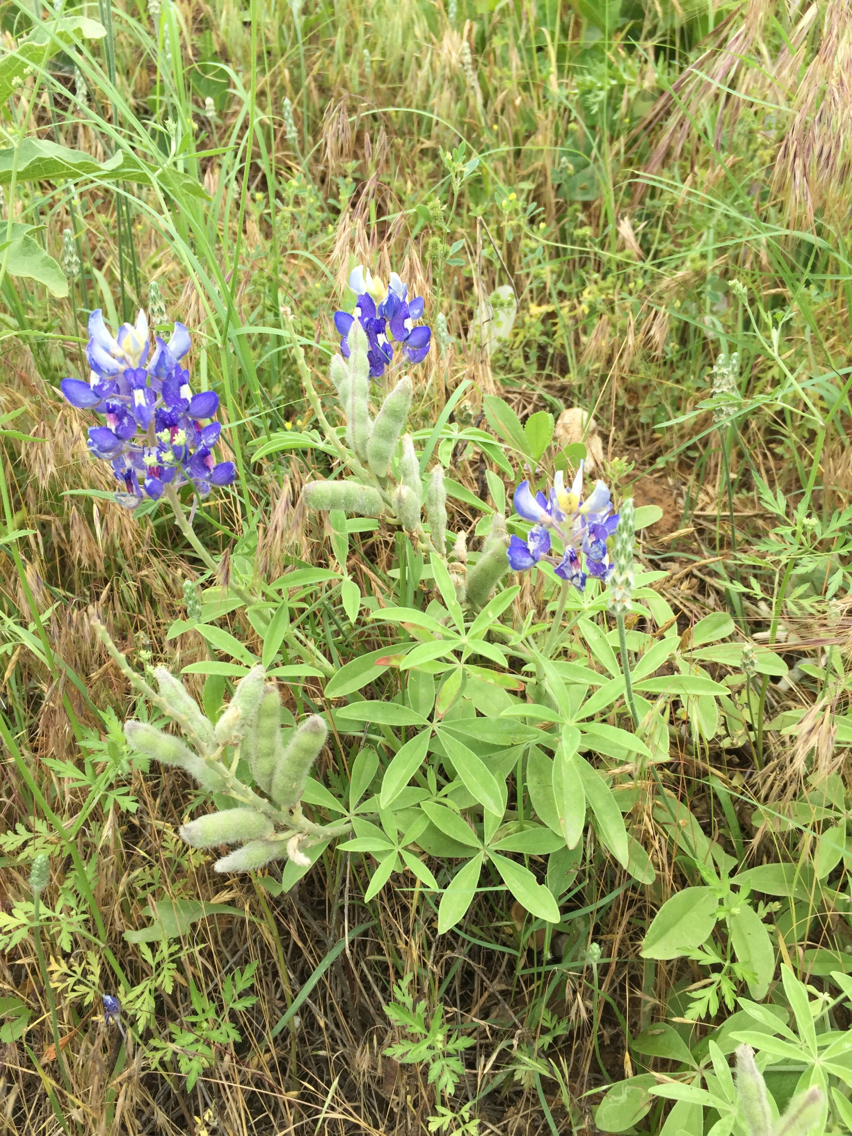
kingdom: Plantae
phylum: Tracheophyta
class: Magnoliopsida
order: Fabales
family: Fabaceae
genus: Lupinus
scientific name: Lupinus texensis
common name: Texas bluebonnet
